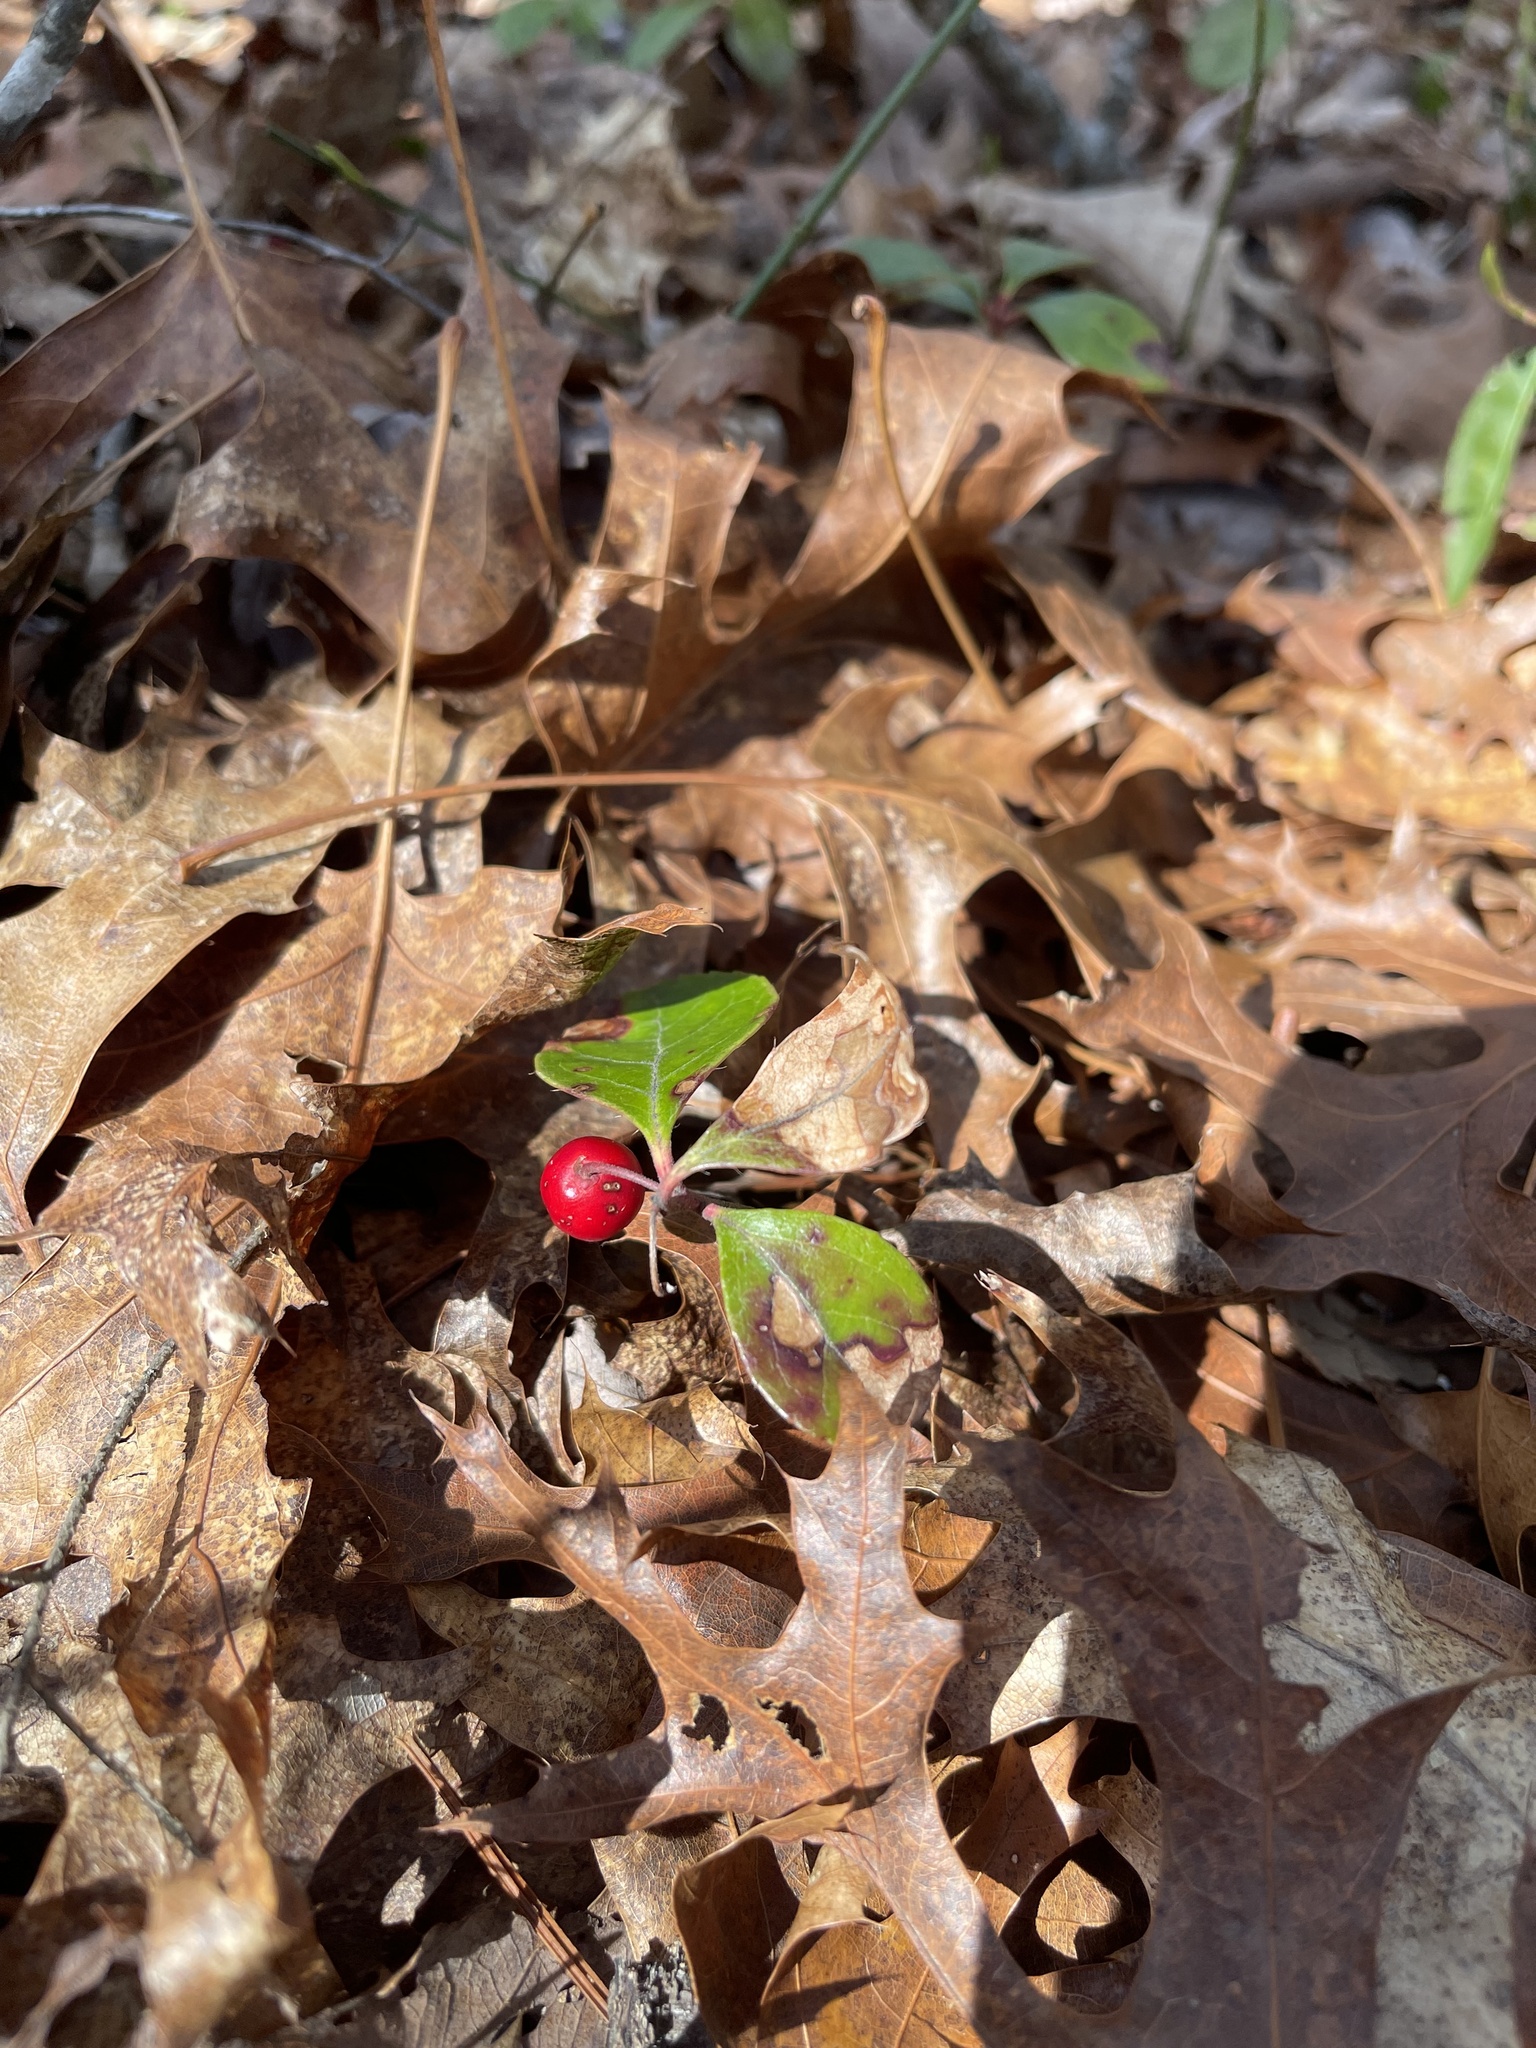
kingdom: Plantae
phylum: Tracheophyta
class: Magnoliopsida
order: Ericales
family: Ericaceae
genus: Gaultheria
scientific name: Gaultheria procumbens
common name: Checkerberry
